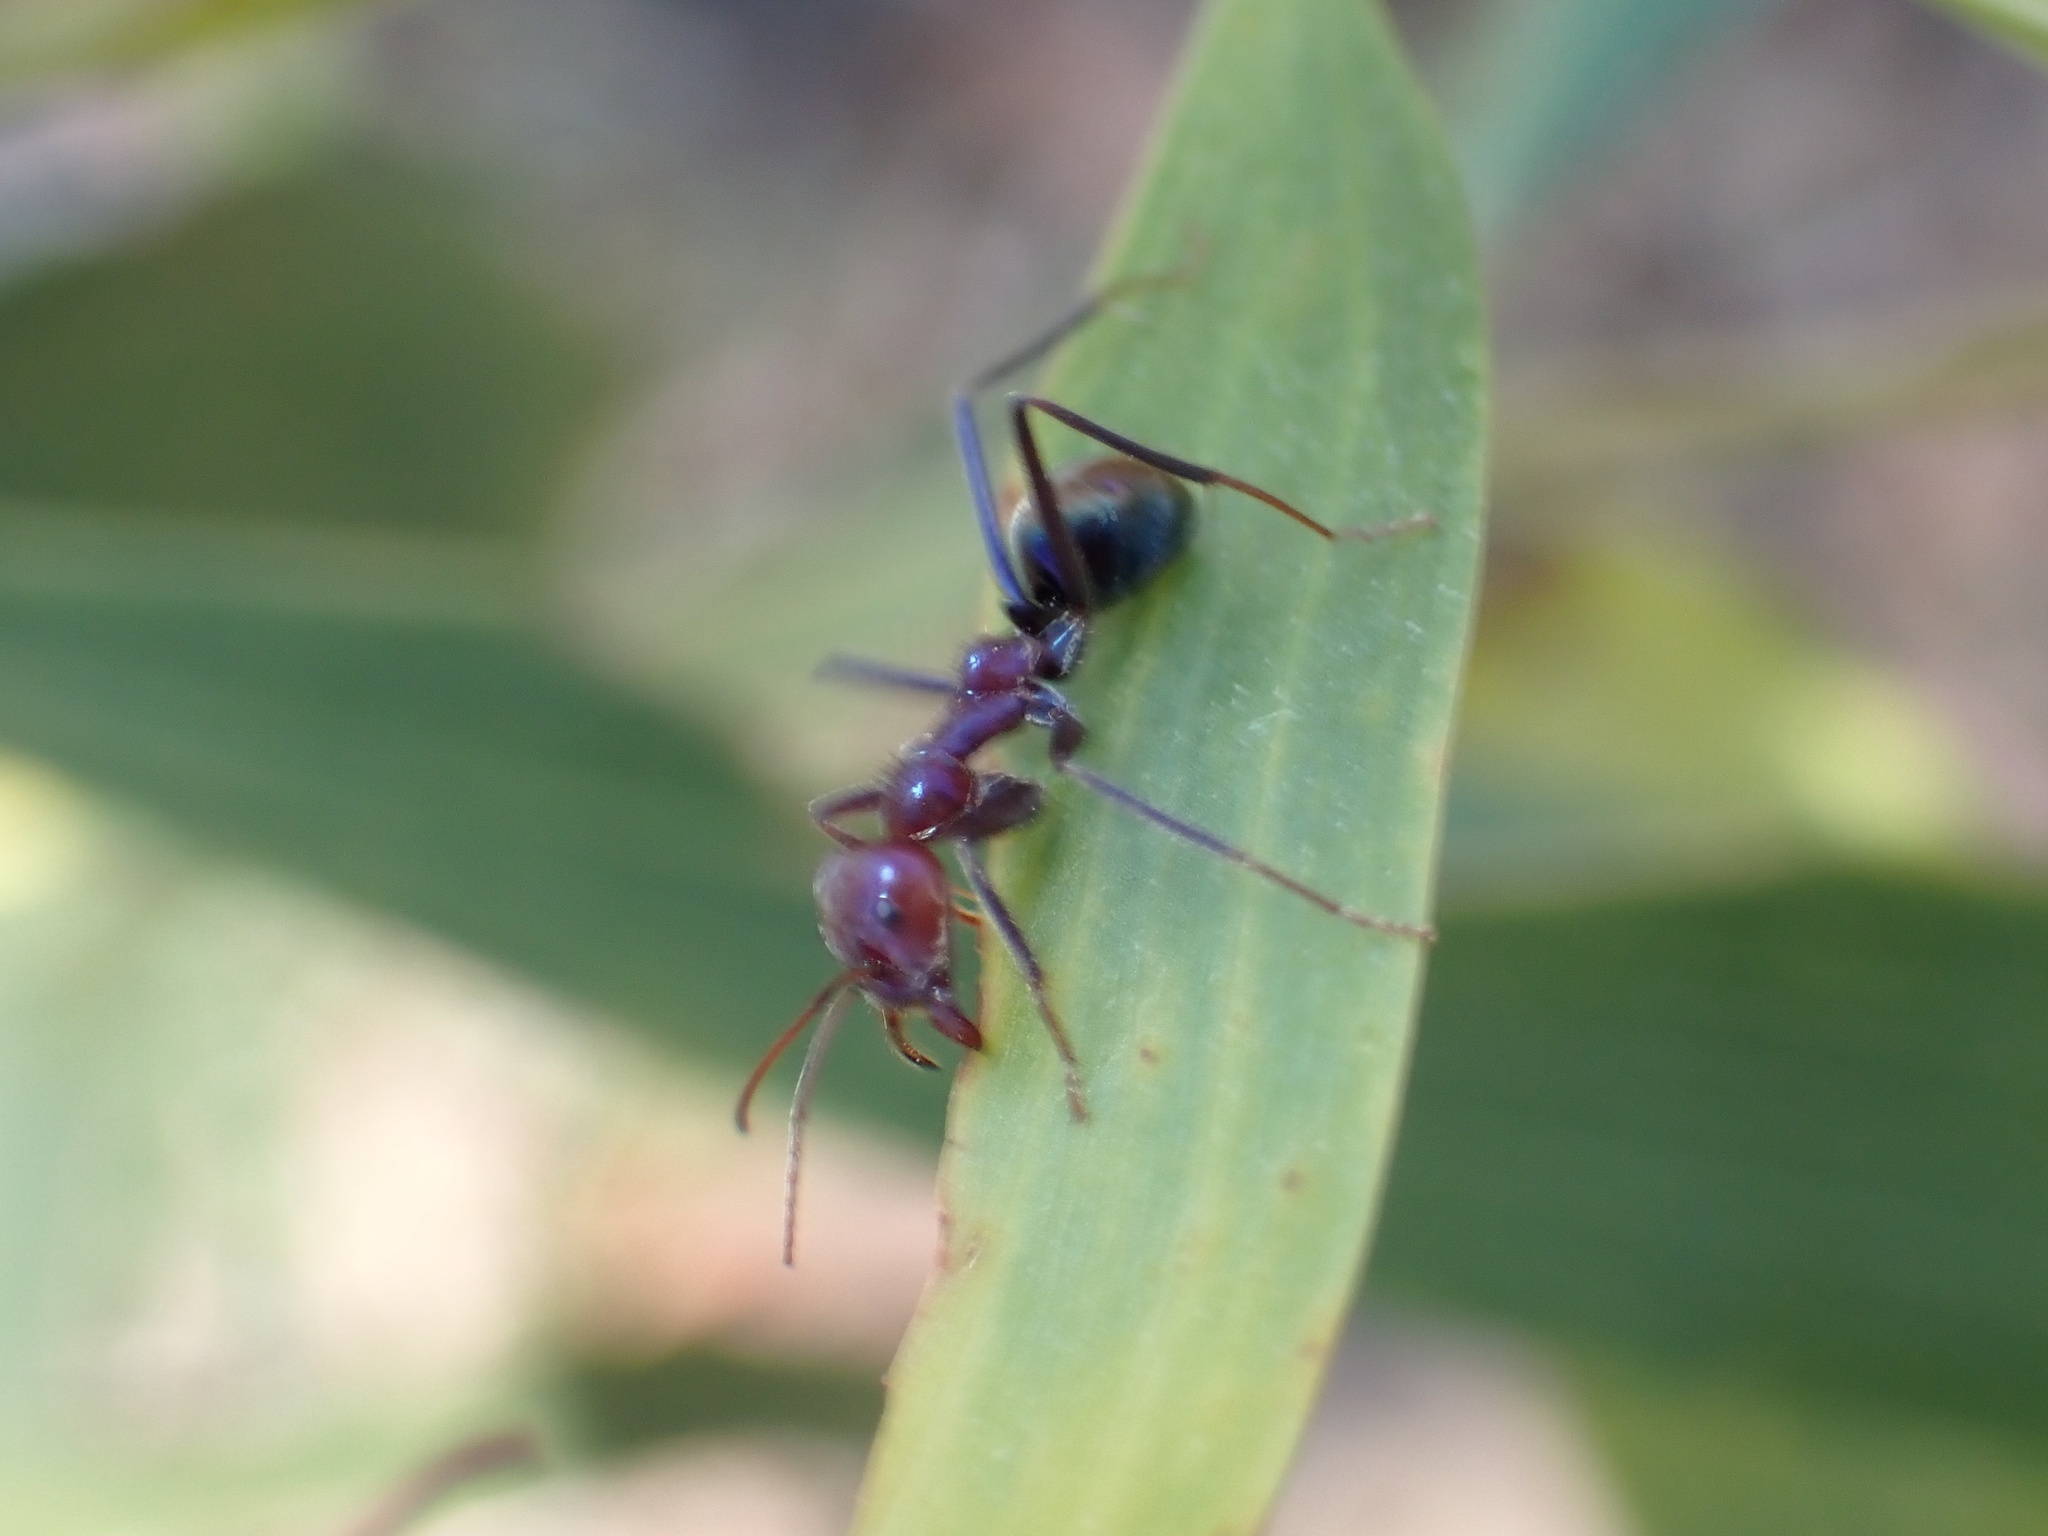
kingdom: Animalia
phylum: Arthropoda
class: Insecta
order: Hymenoptera
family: Formicidae
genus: Iridomyrmex
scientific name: Iridomyrmex purpureus
